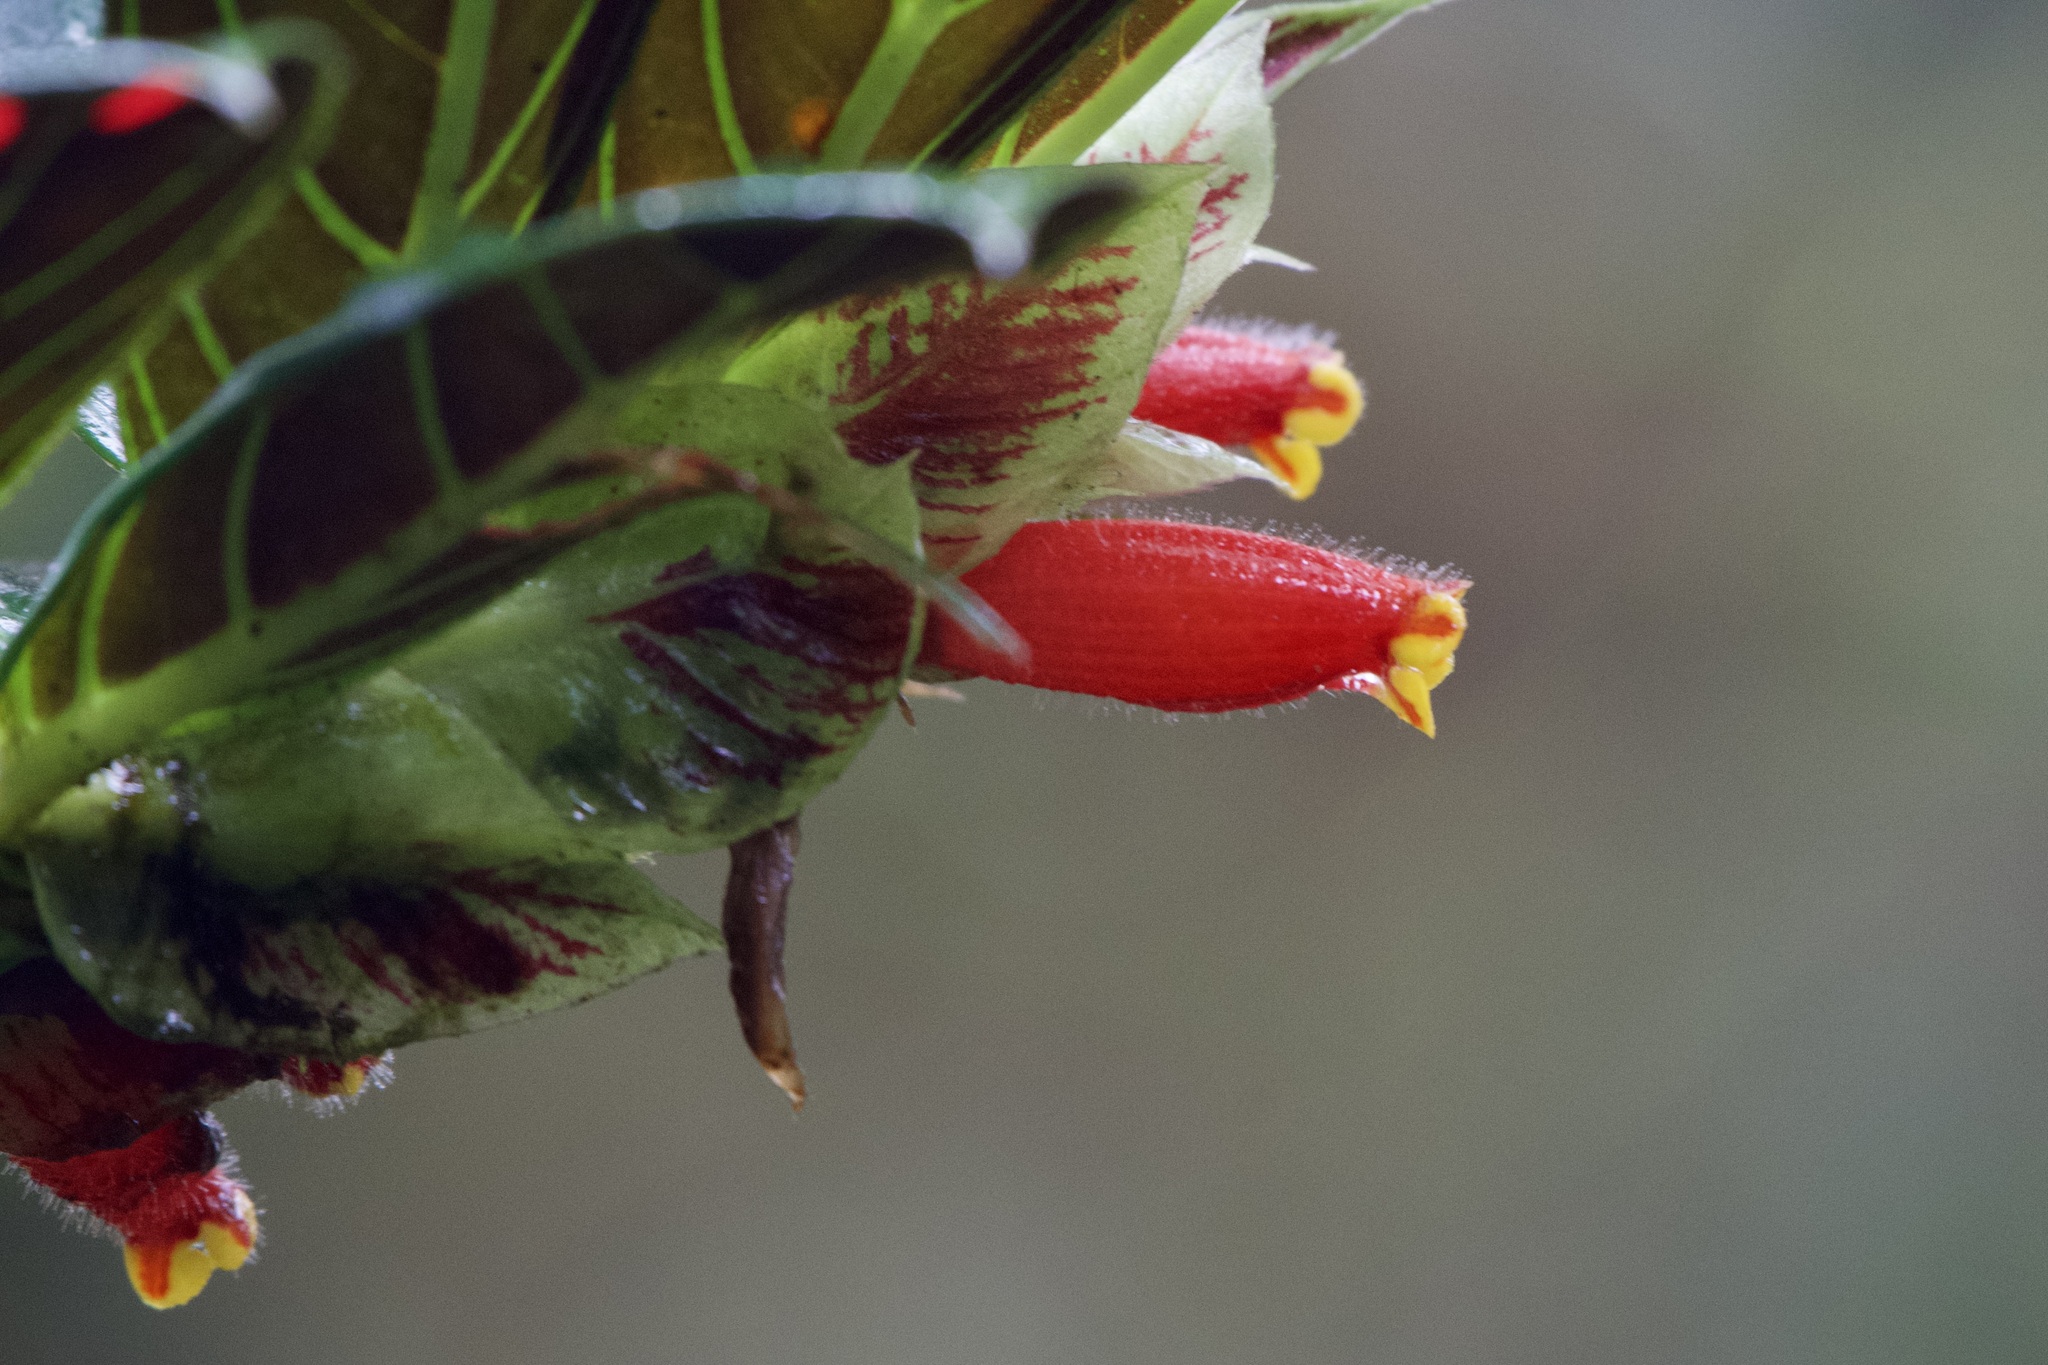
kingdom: Plantae
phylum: Tracheophyta
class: Magnoliopsida
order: Lamiales
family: Gesneriaceae
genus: Columnea
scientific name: Columnea dimidiata
